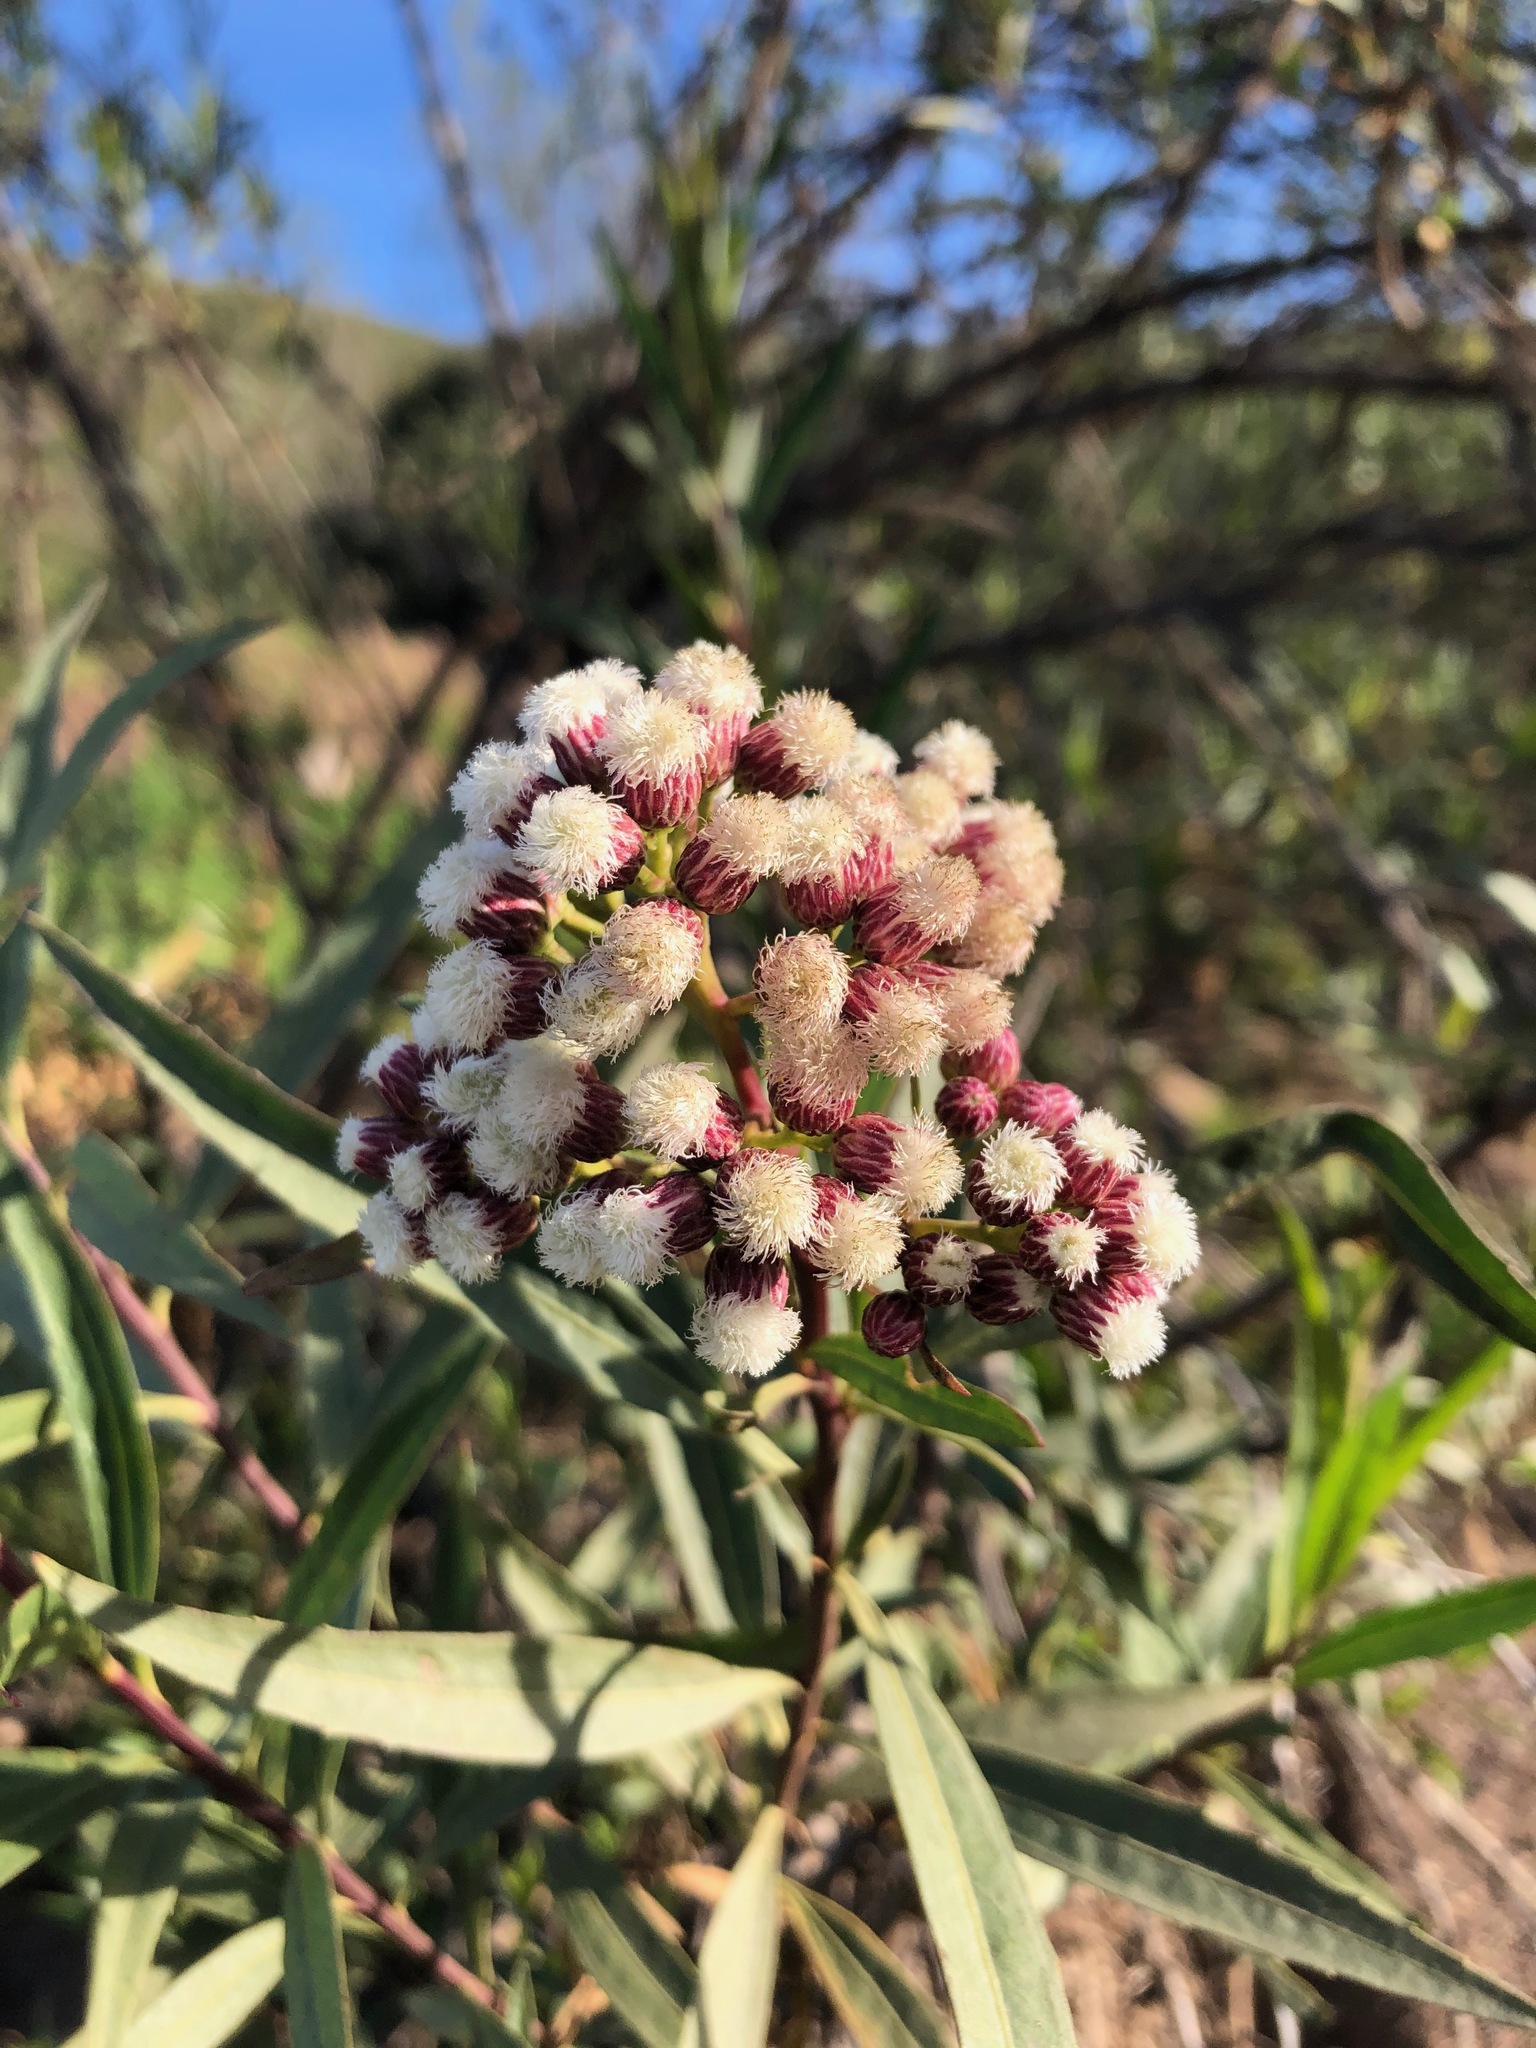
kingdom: Plantae
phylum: Tracheophyta
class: Magnoliopsida
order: Asterales
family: Asteraceae
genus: Baccharis
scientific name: Baccharis salicifolia
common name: Sticky baccharis
